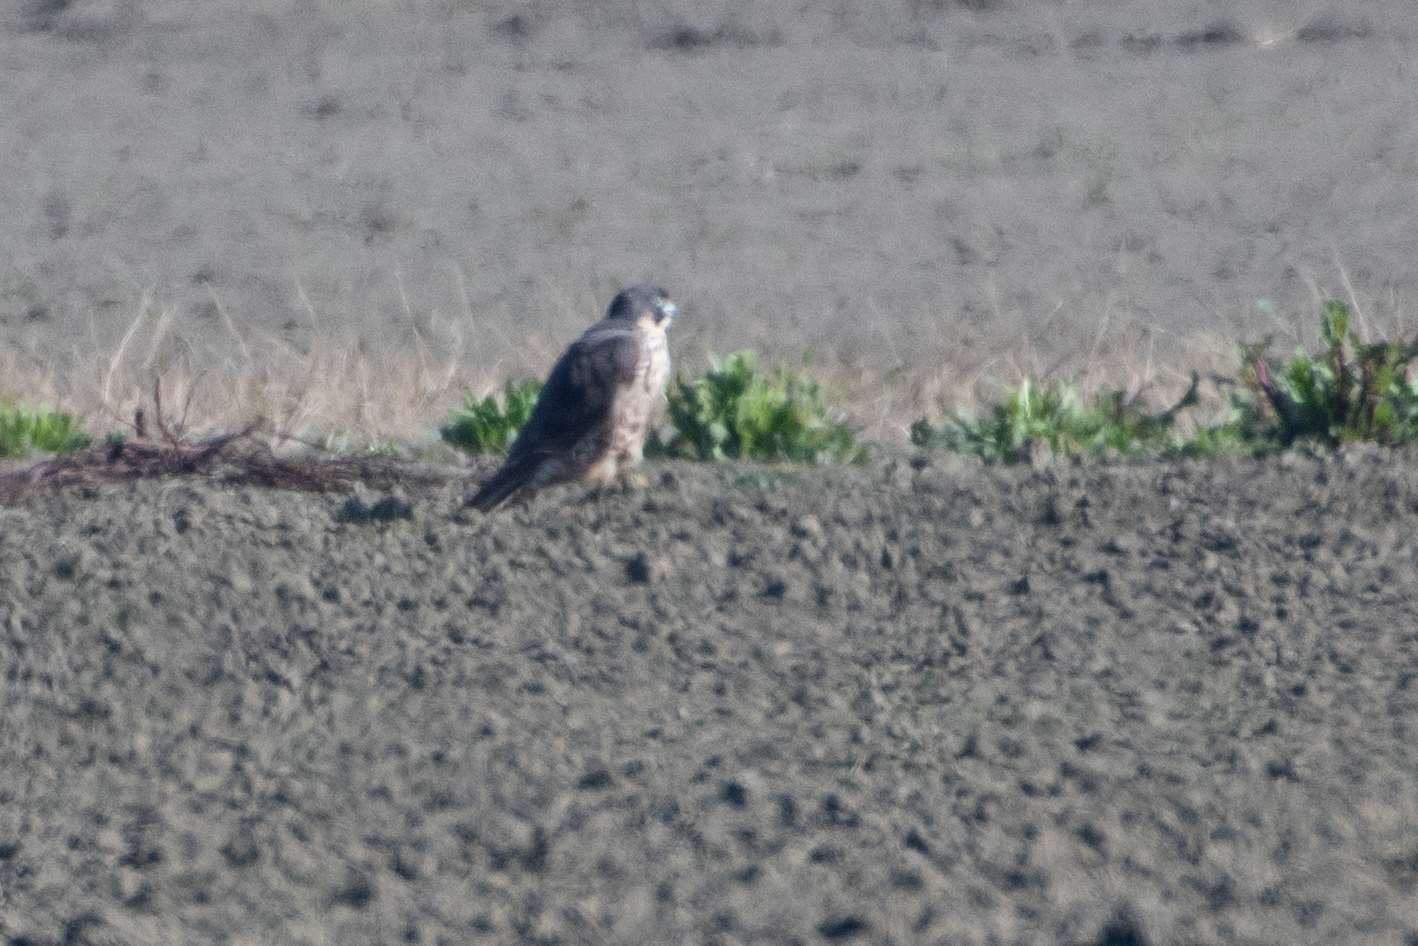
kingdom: Animalia
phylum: Chordata
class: Aves
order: Falconiformes
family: Falconidae
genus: Falco
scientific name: Falco peregrinus
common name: Peregrine falcon
